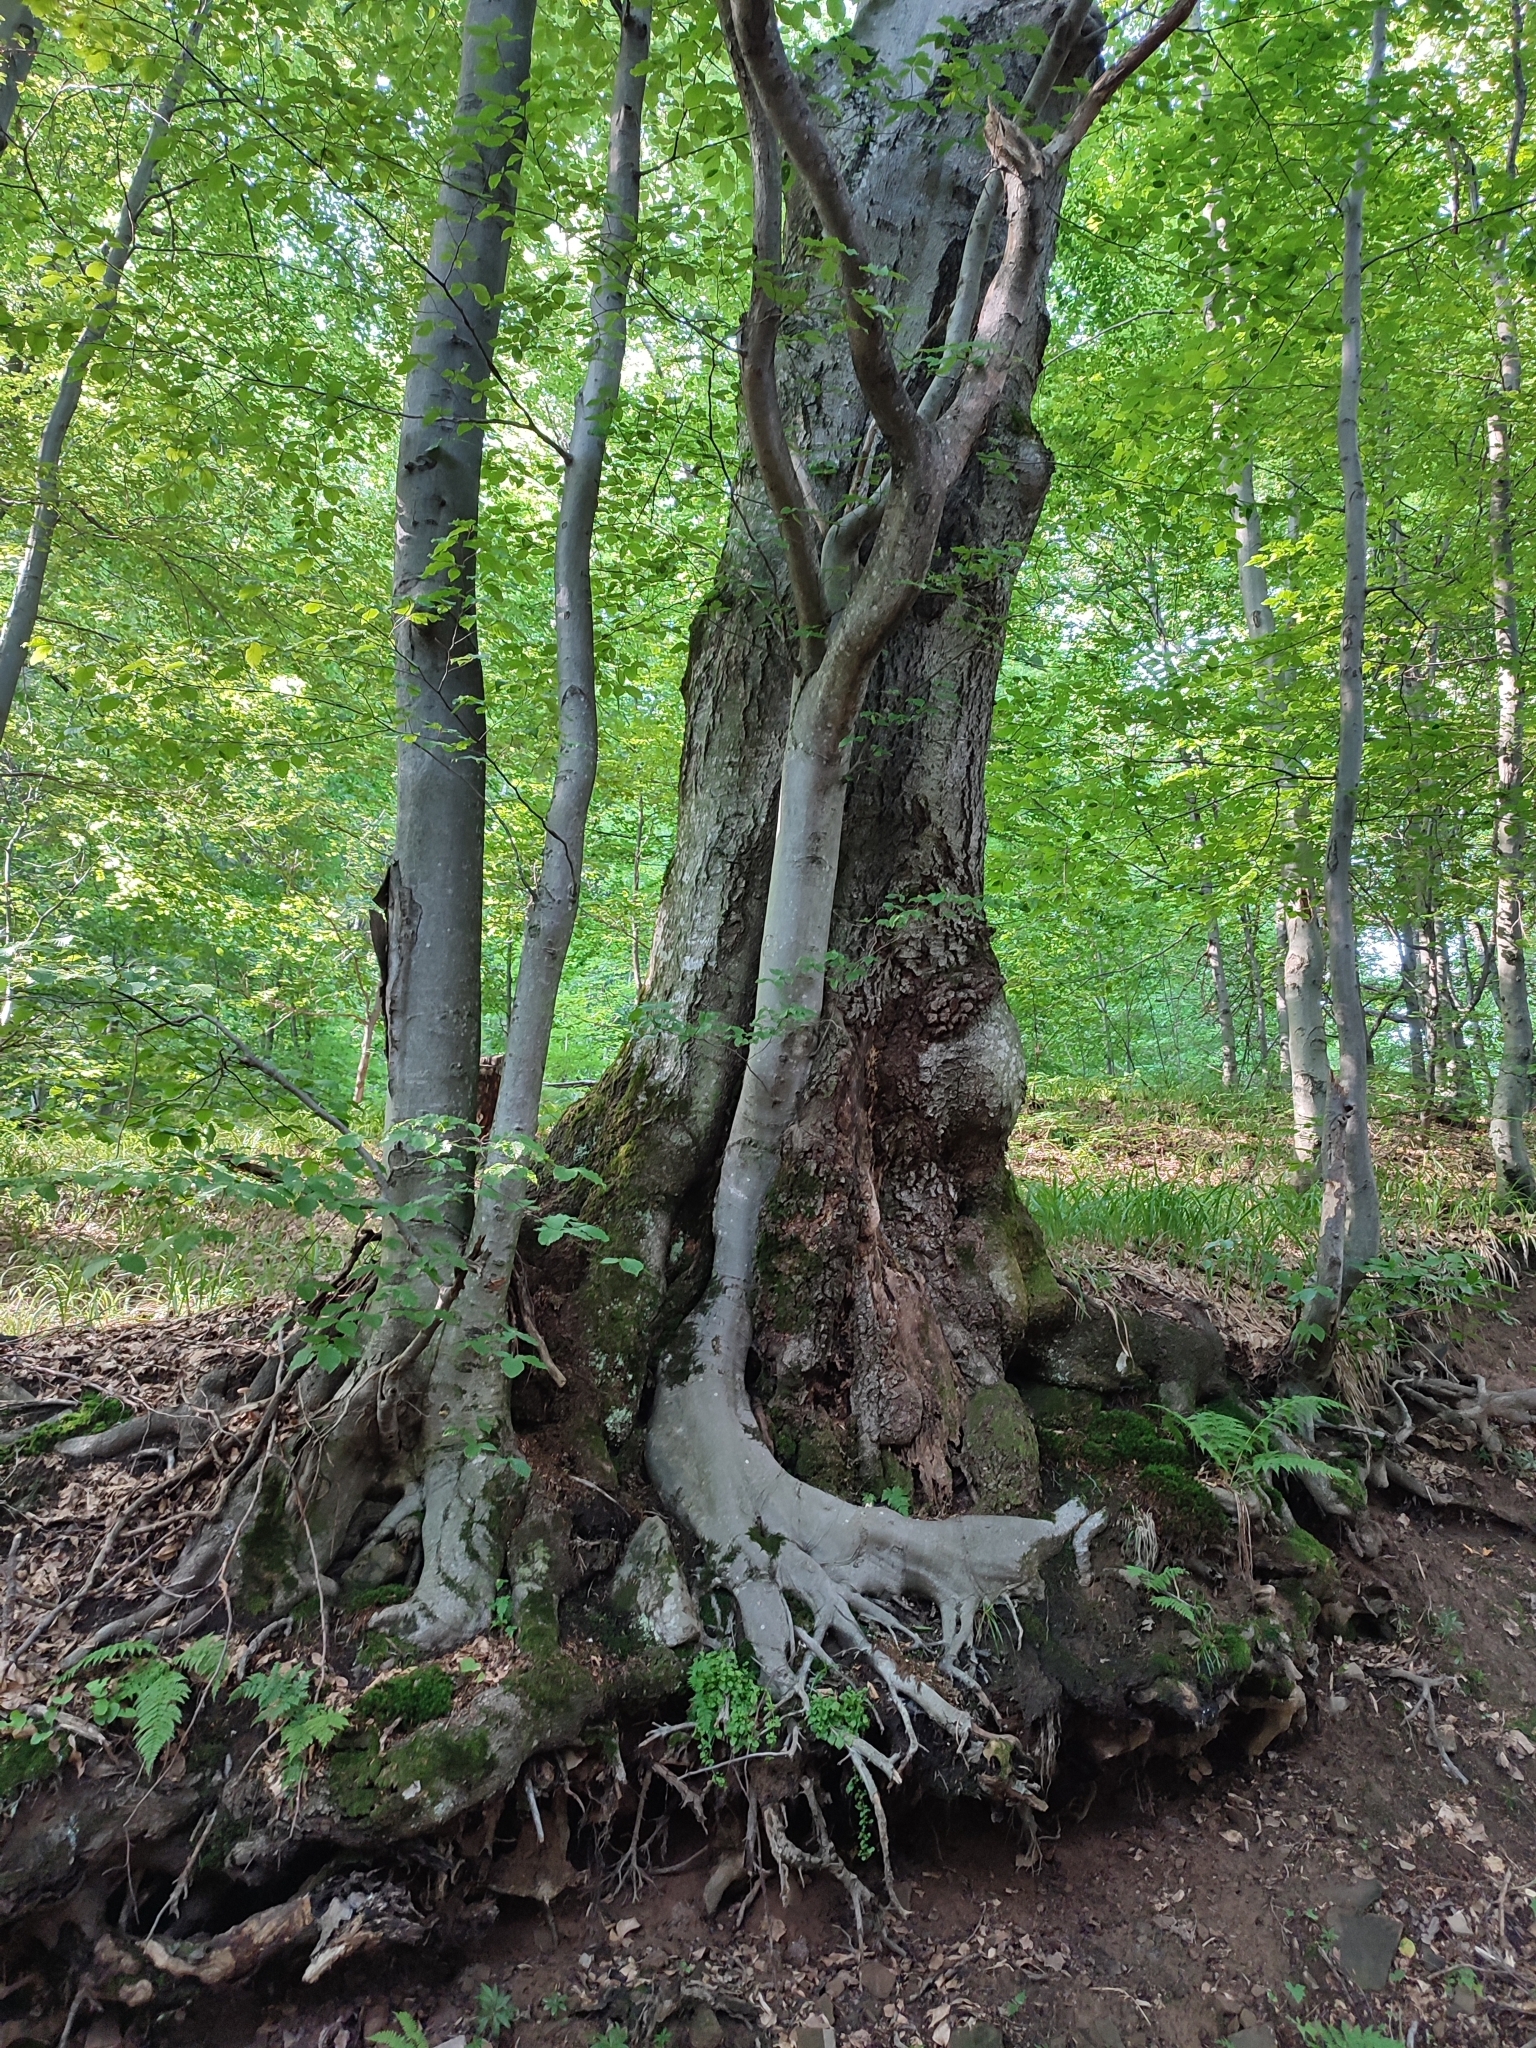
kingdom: Plantae
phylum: Tracheophyta
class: Magnoliopsida
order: Fagales
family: Fagaceae
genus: Fagus
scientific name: Fagus sylvatica
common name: Beech
